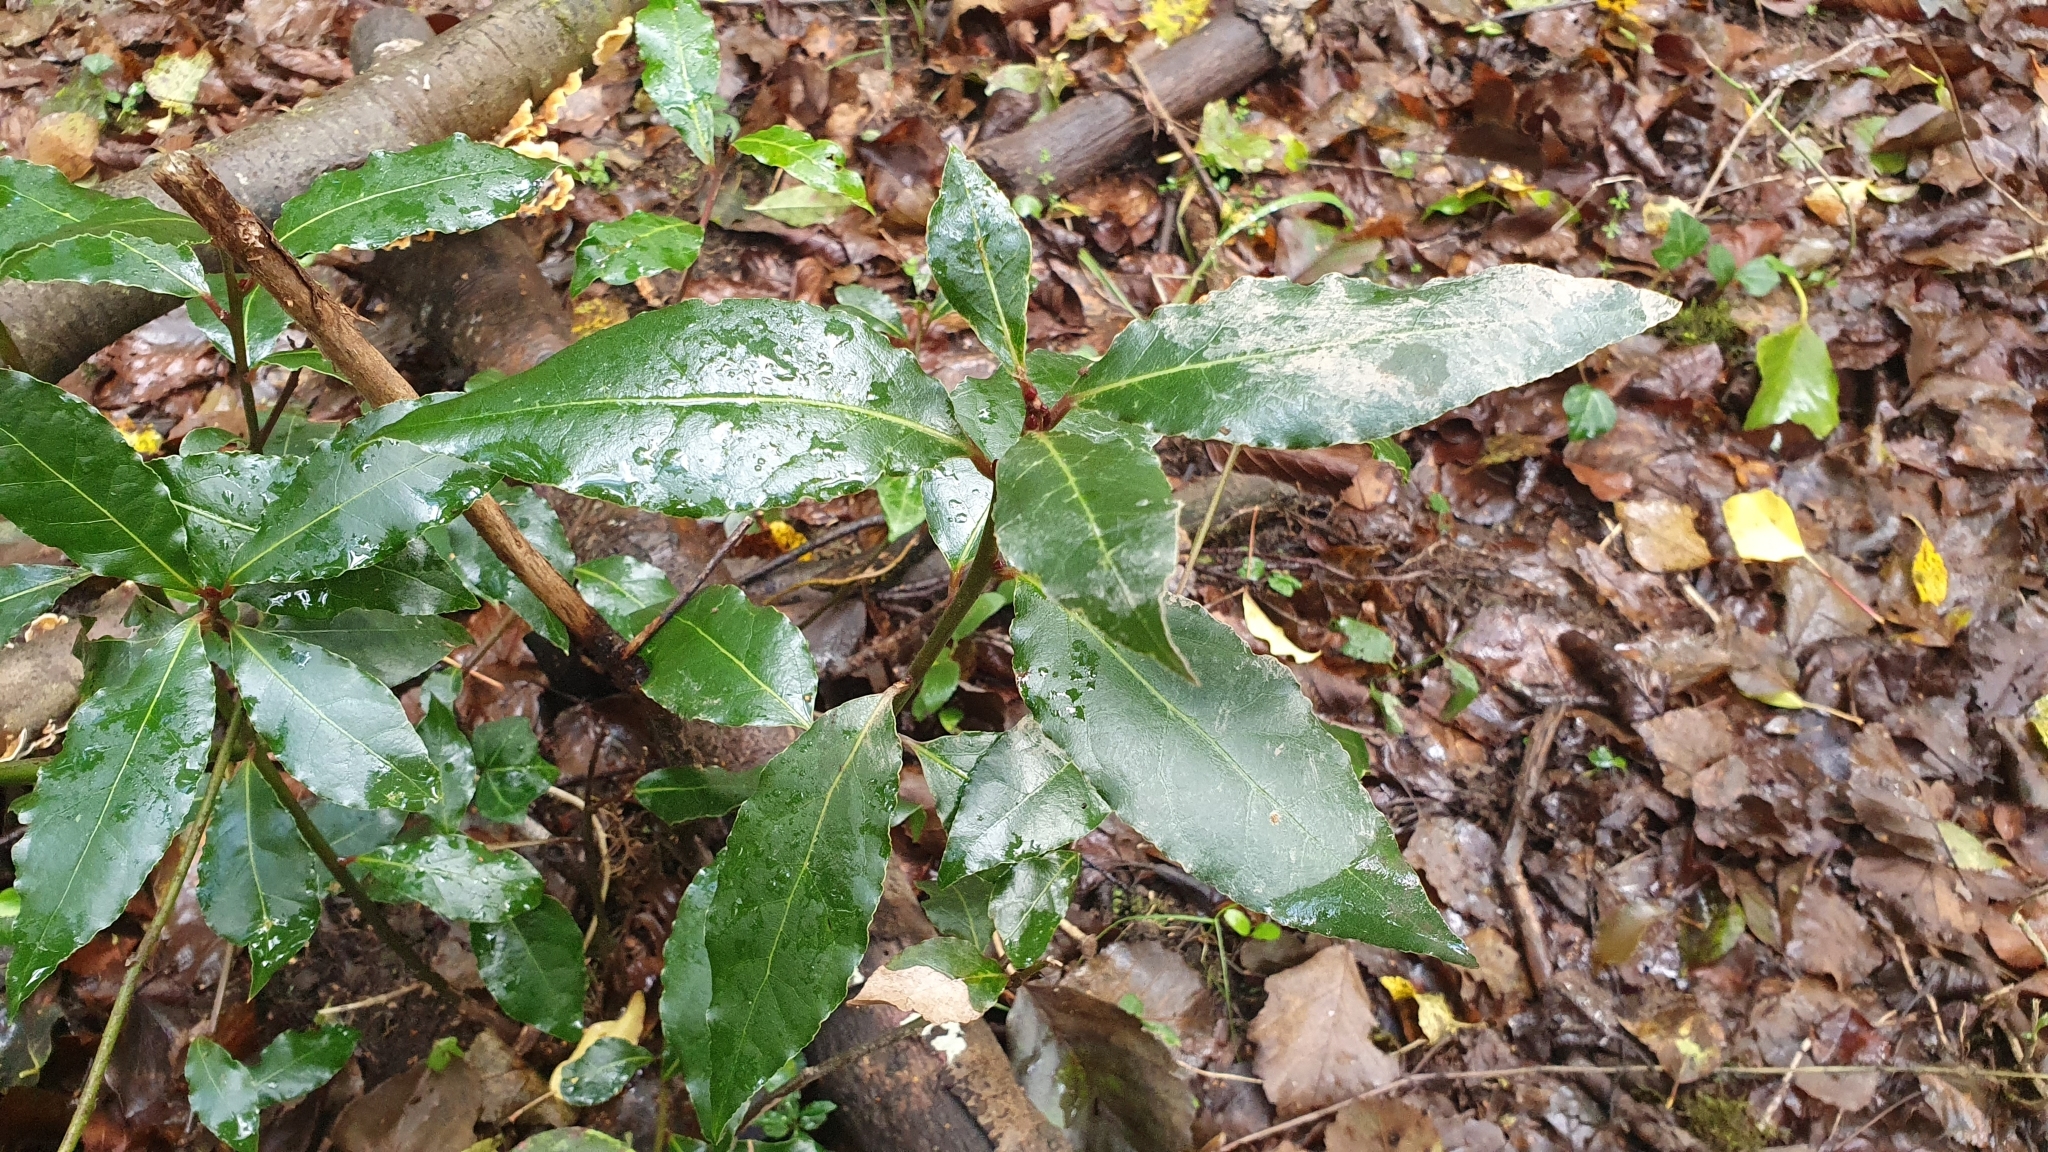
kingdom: Plantae
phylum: Tracheophyta
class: Magnoliopsida
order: Laurales
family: Lauraceae
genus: Laurus
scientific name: Laurus nobilis
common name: Bay
